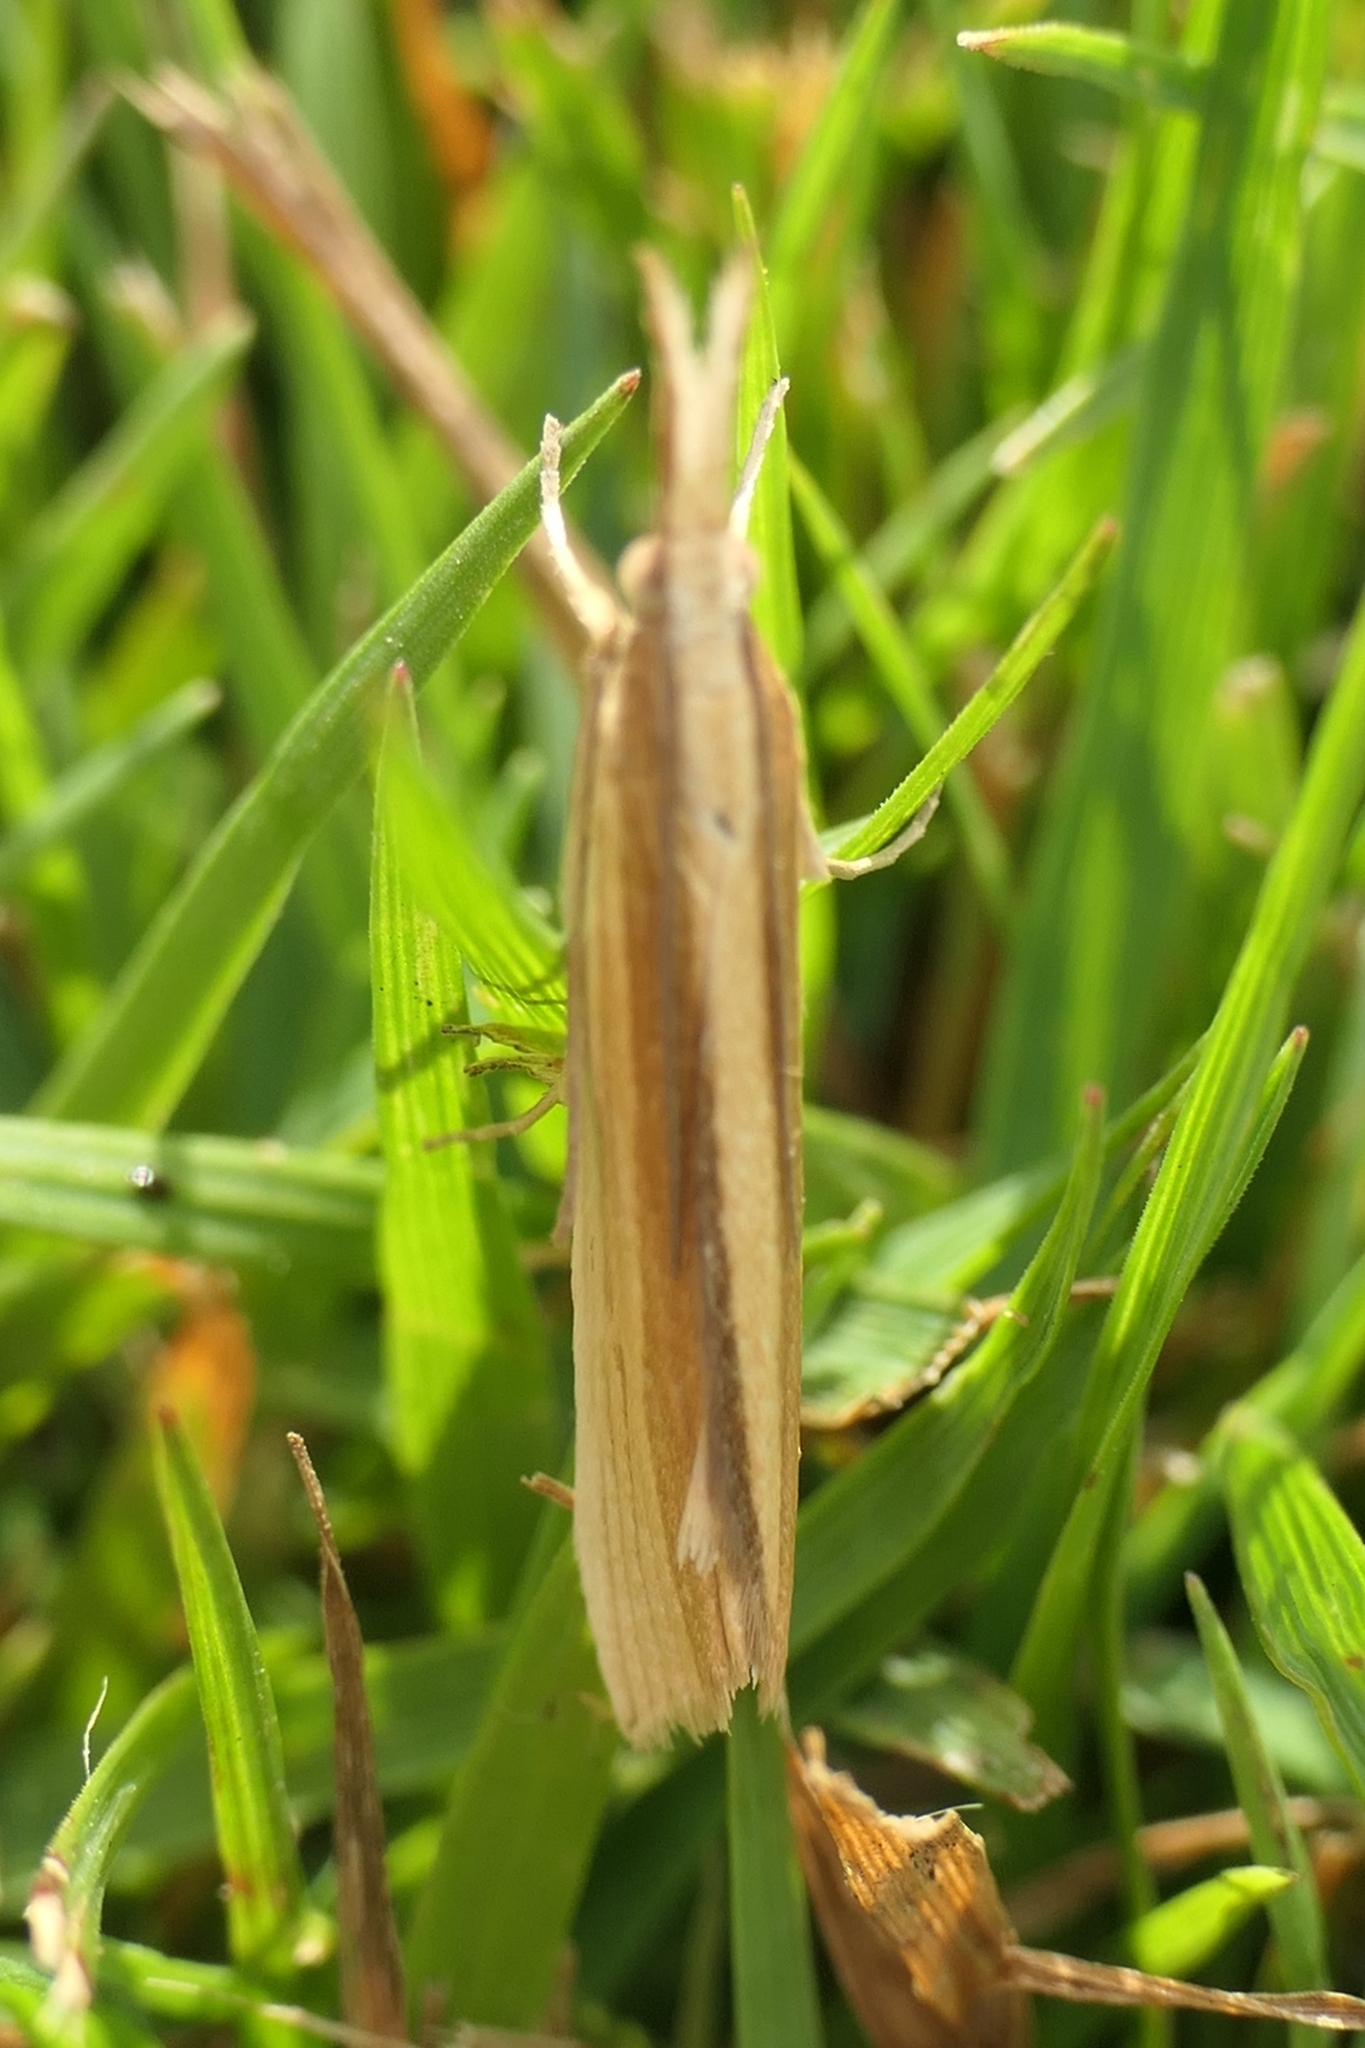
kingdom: Animalia
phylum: Arthropoda
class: Insecta
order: Lepidoptera
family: Crambidae
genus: Orocrambus
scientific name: Orocrambus angustipennis
